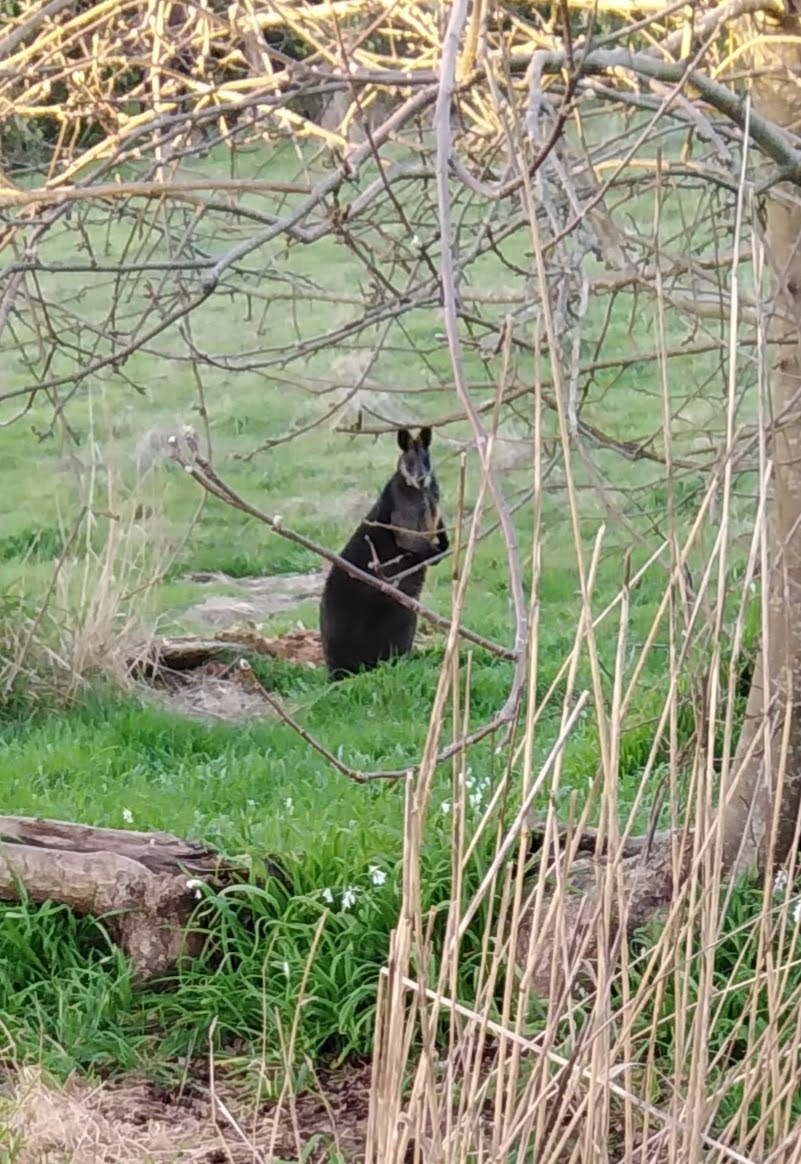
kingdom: Animalia
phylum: Chordata
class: Mammalia
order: Diprotodontia
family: Macropodidae
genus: Wallabia
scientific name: Wallabia bicolor
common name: Swamp wallaby
